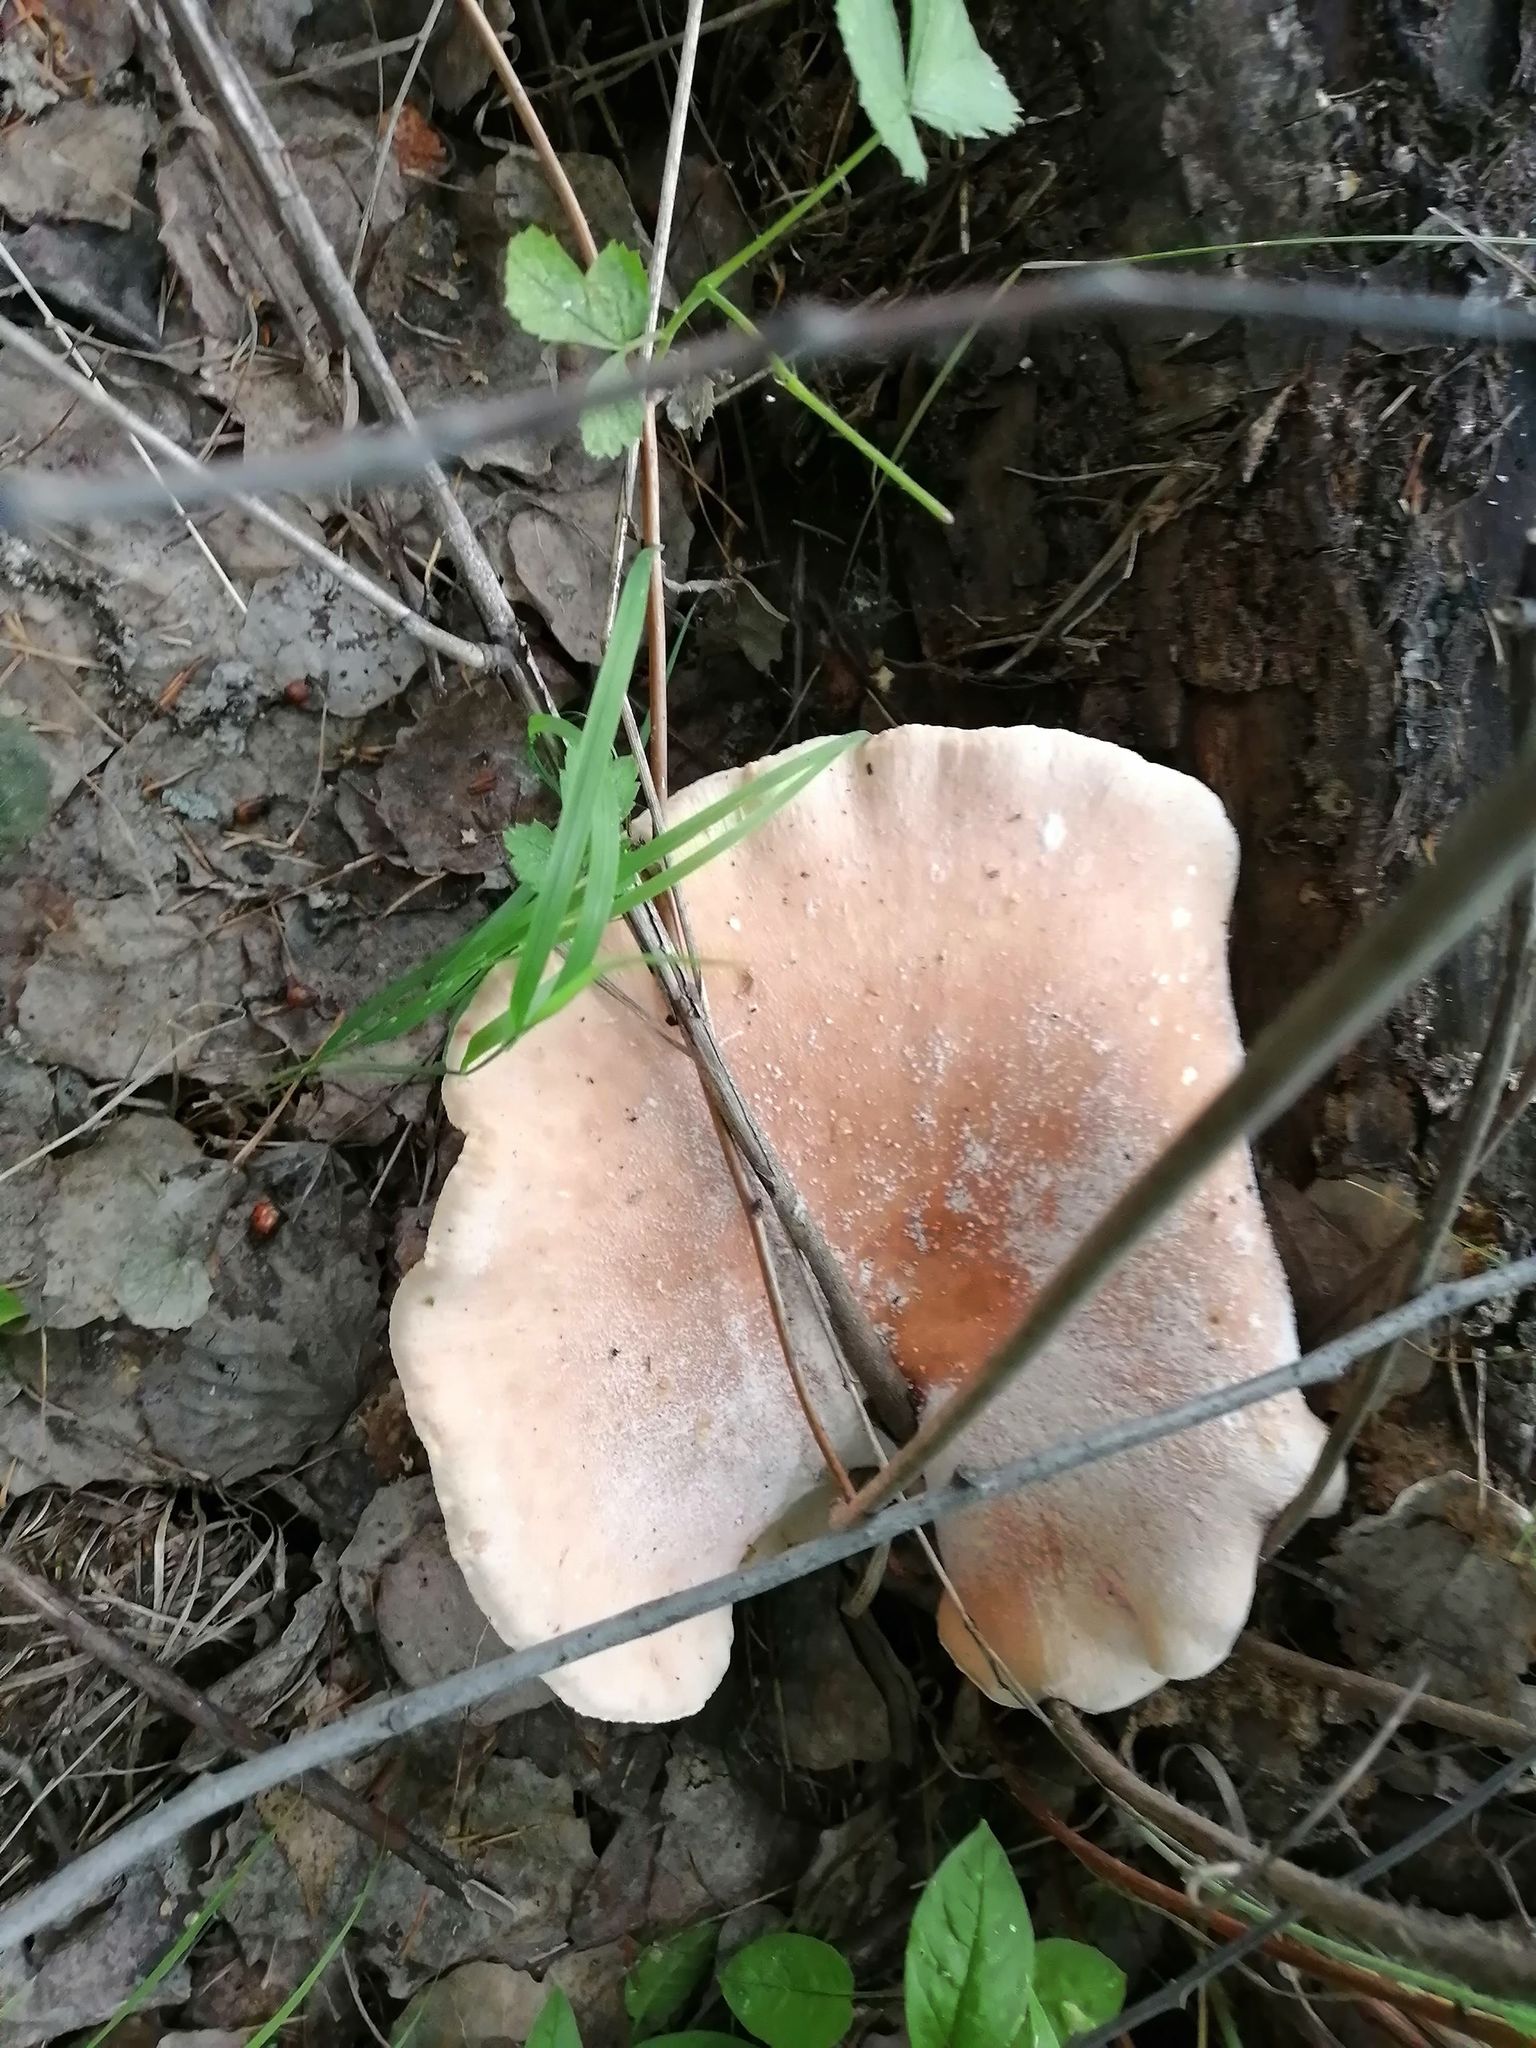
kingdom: Fungi
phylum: Basidiomycota
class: Agaricomycetes
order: Gloeophyllales
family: Gloeophyllaceae
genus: Neolentinus
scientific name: Neolentinus cyathiformis
